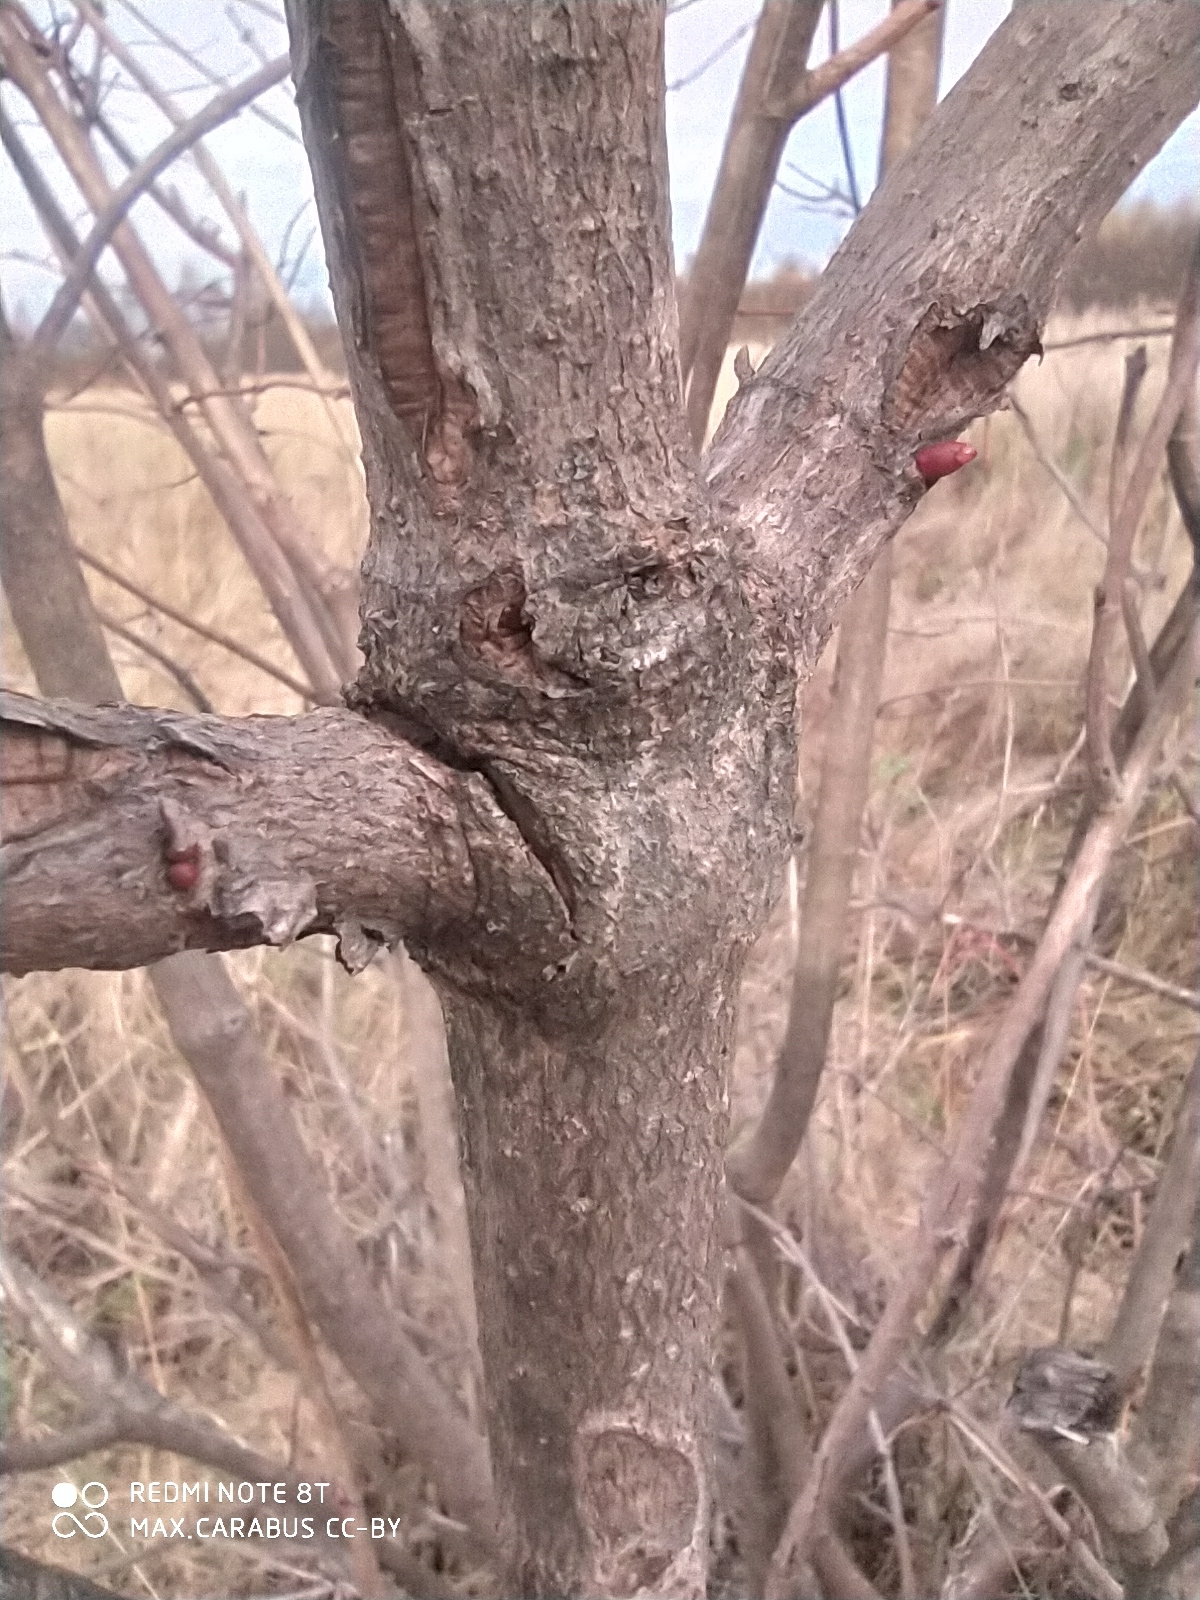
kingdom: Plantae
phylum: Tracheophyta
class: Magnoliopsida
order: Dipsacales
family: Viburnaceae
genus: Viburnum
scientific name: Viburnum opulus
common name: Guelder-rose
